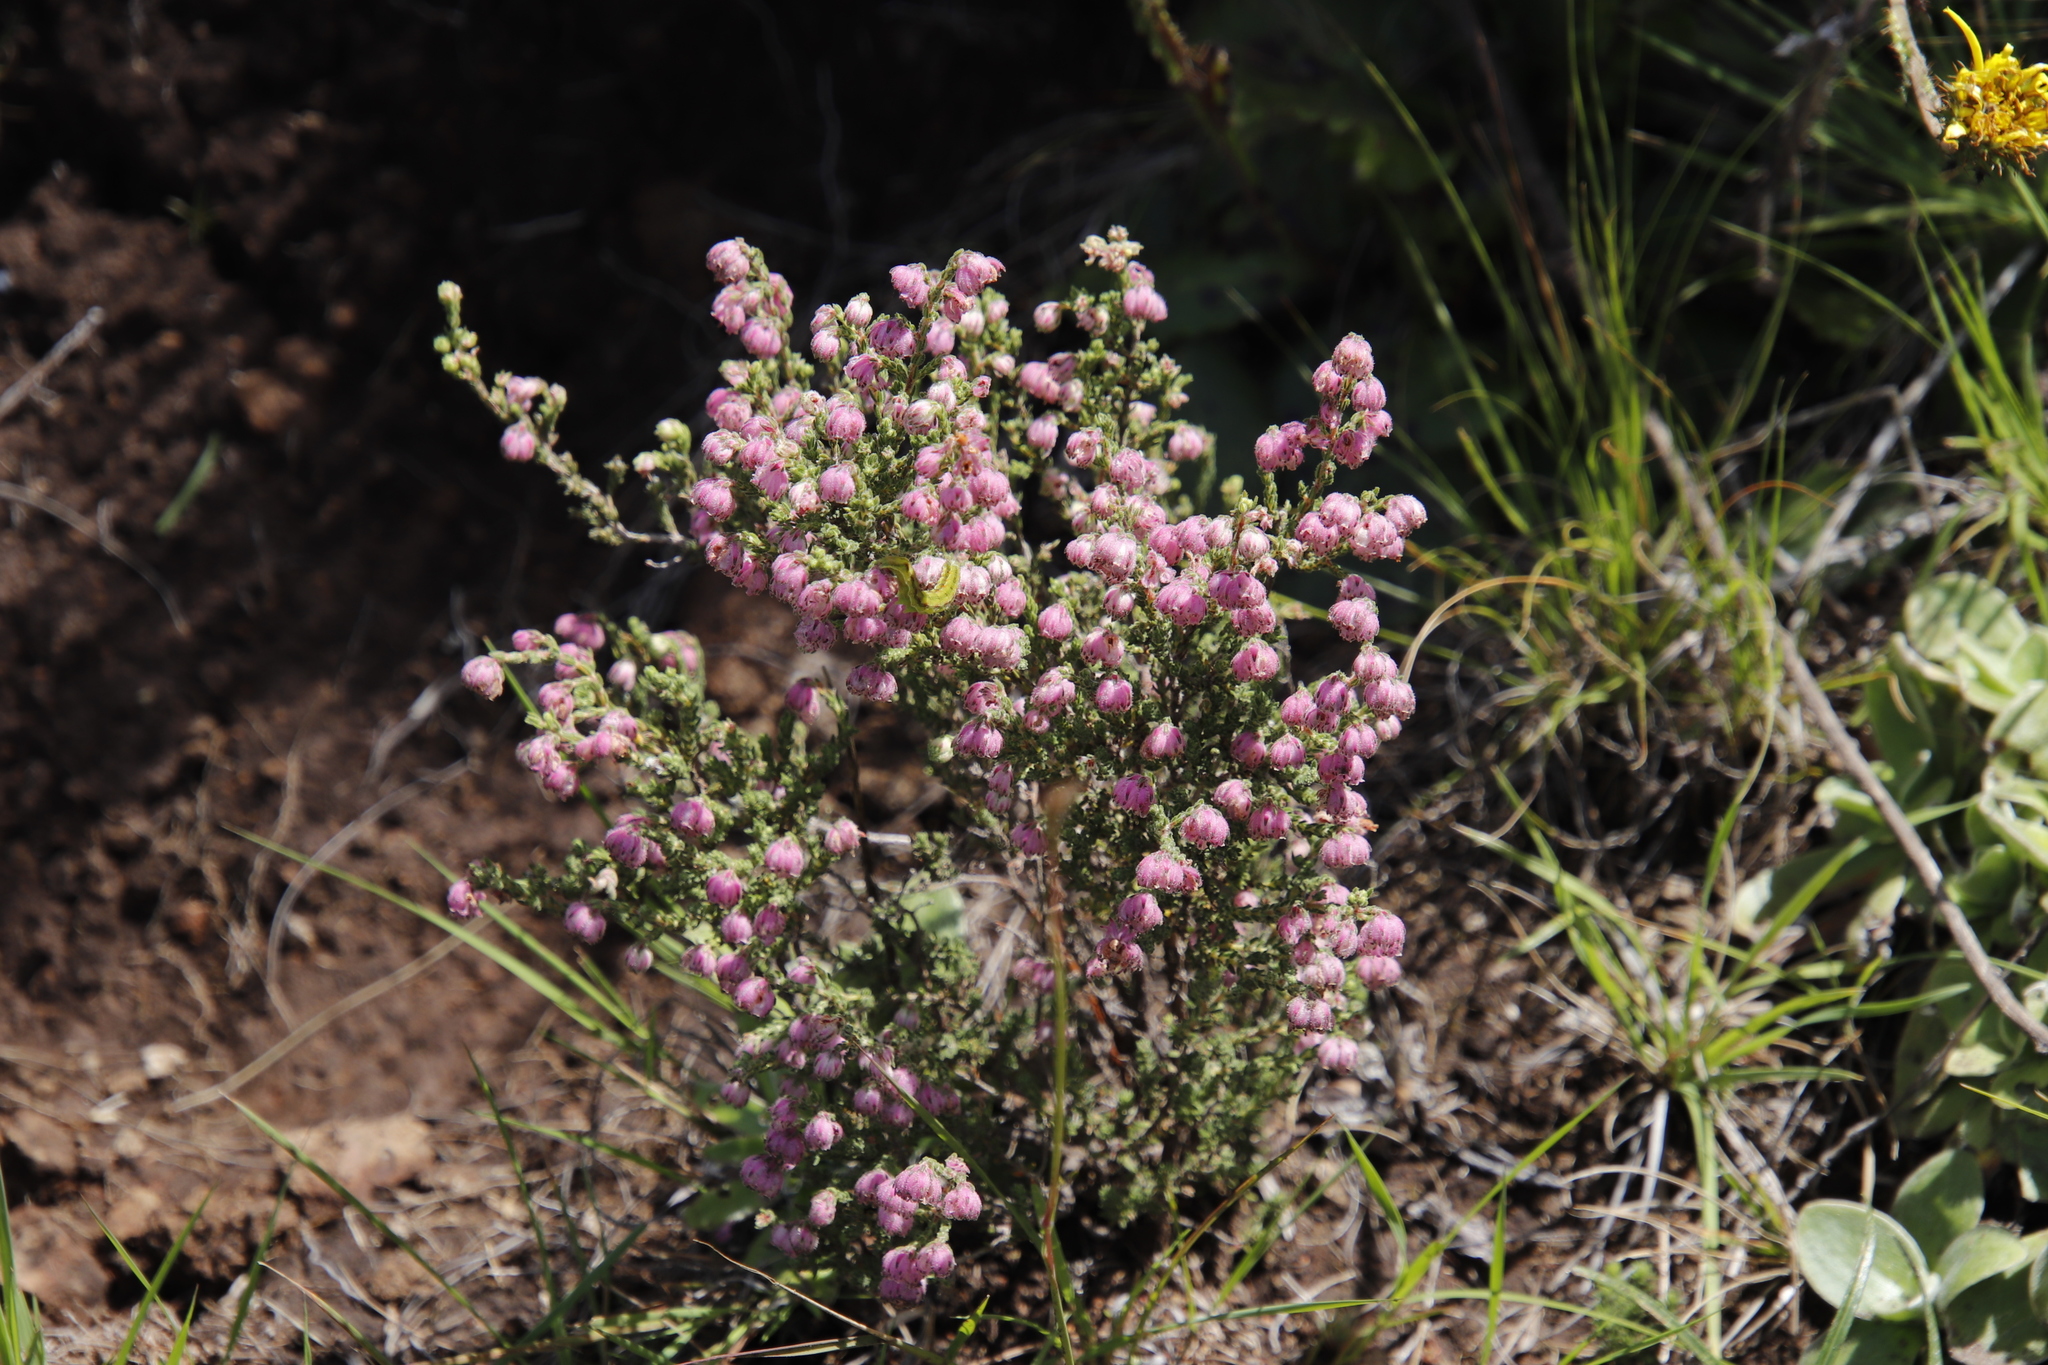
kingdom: Plantae
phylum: Tracheophyta
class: Magnoliopsida
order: Ericales
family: Ericaceae
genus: Erica
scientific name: Erica cooperi
